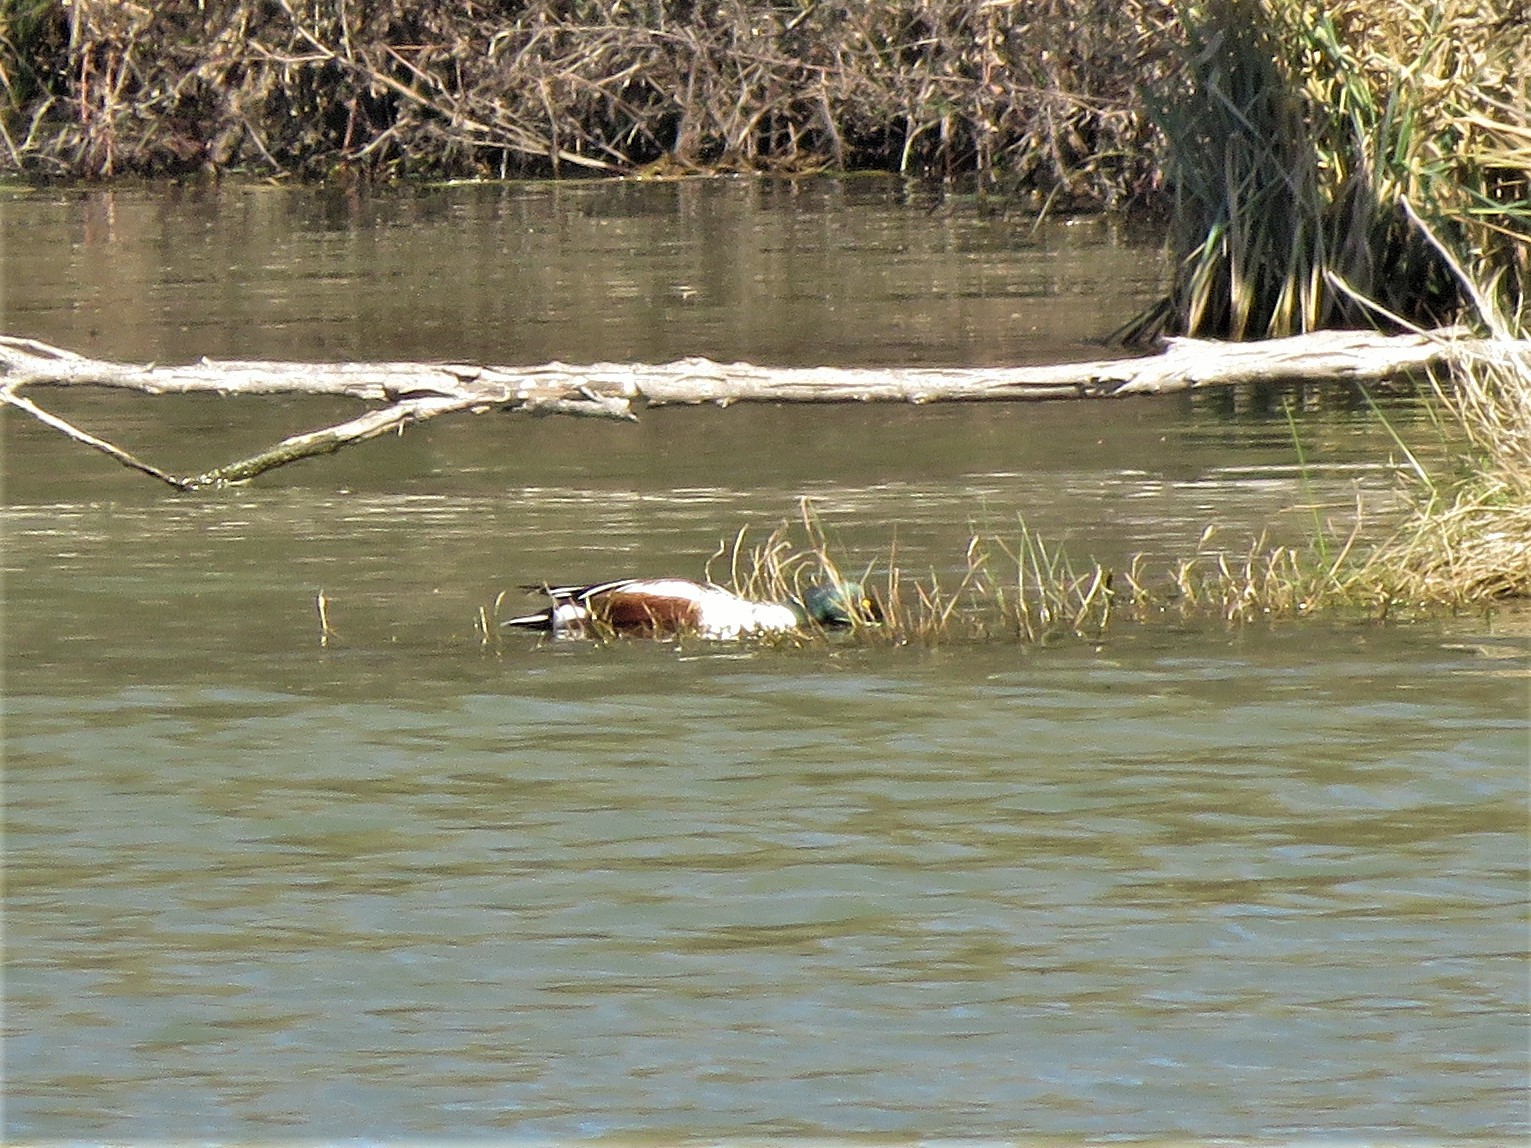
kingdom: Animalia
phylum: Chordata
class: Aves
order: Anseriformes
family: Anatidae
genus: Spatula
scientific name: Spatula clypeata
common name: Northern shoveler
